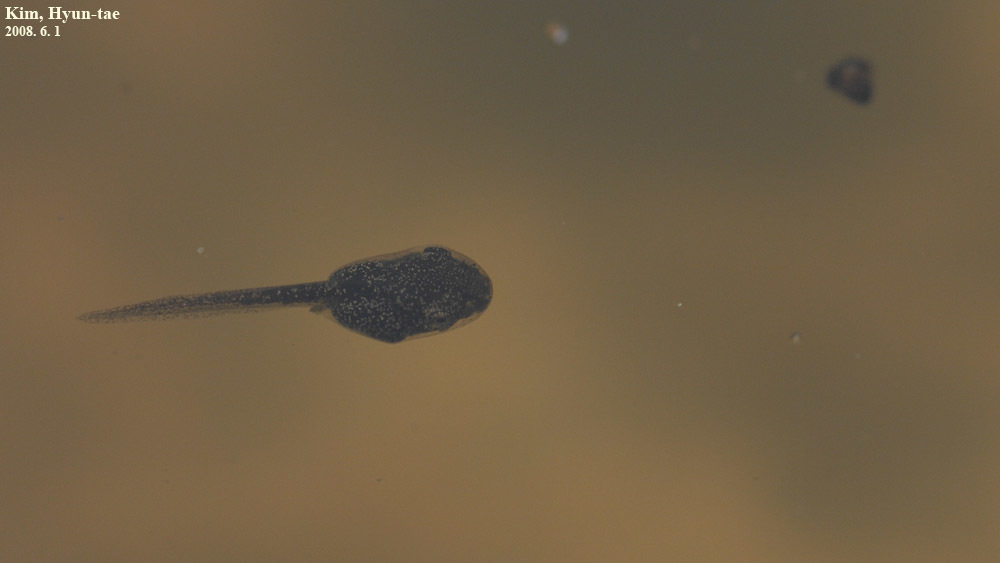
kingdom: Animalia
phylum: Chordata
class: Amphibia
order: Anura
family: Hylidae
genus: Dryophytes
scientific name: Dryophytes japonicus
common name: Japanese treefrog
